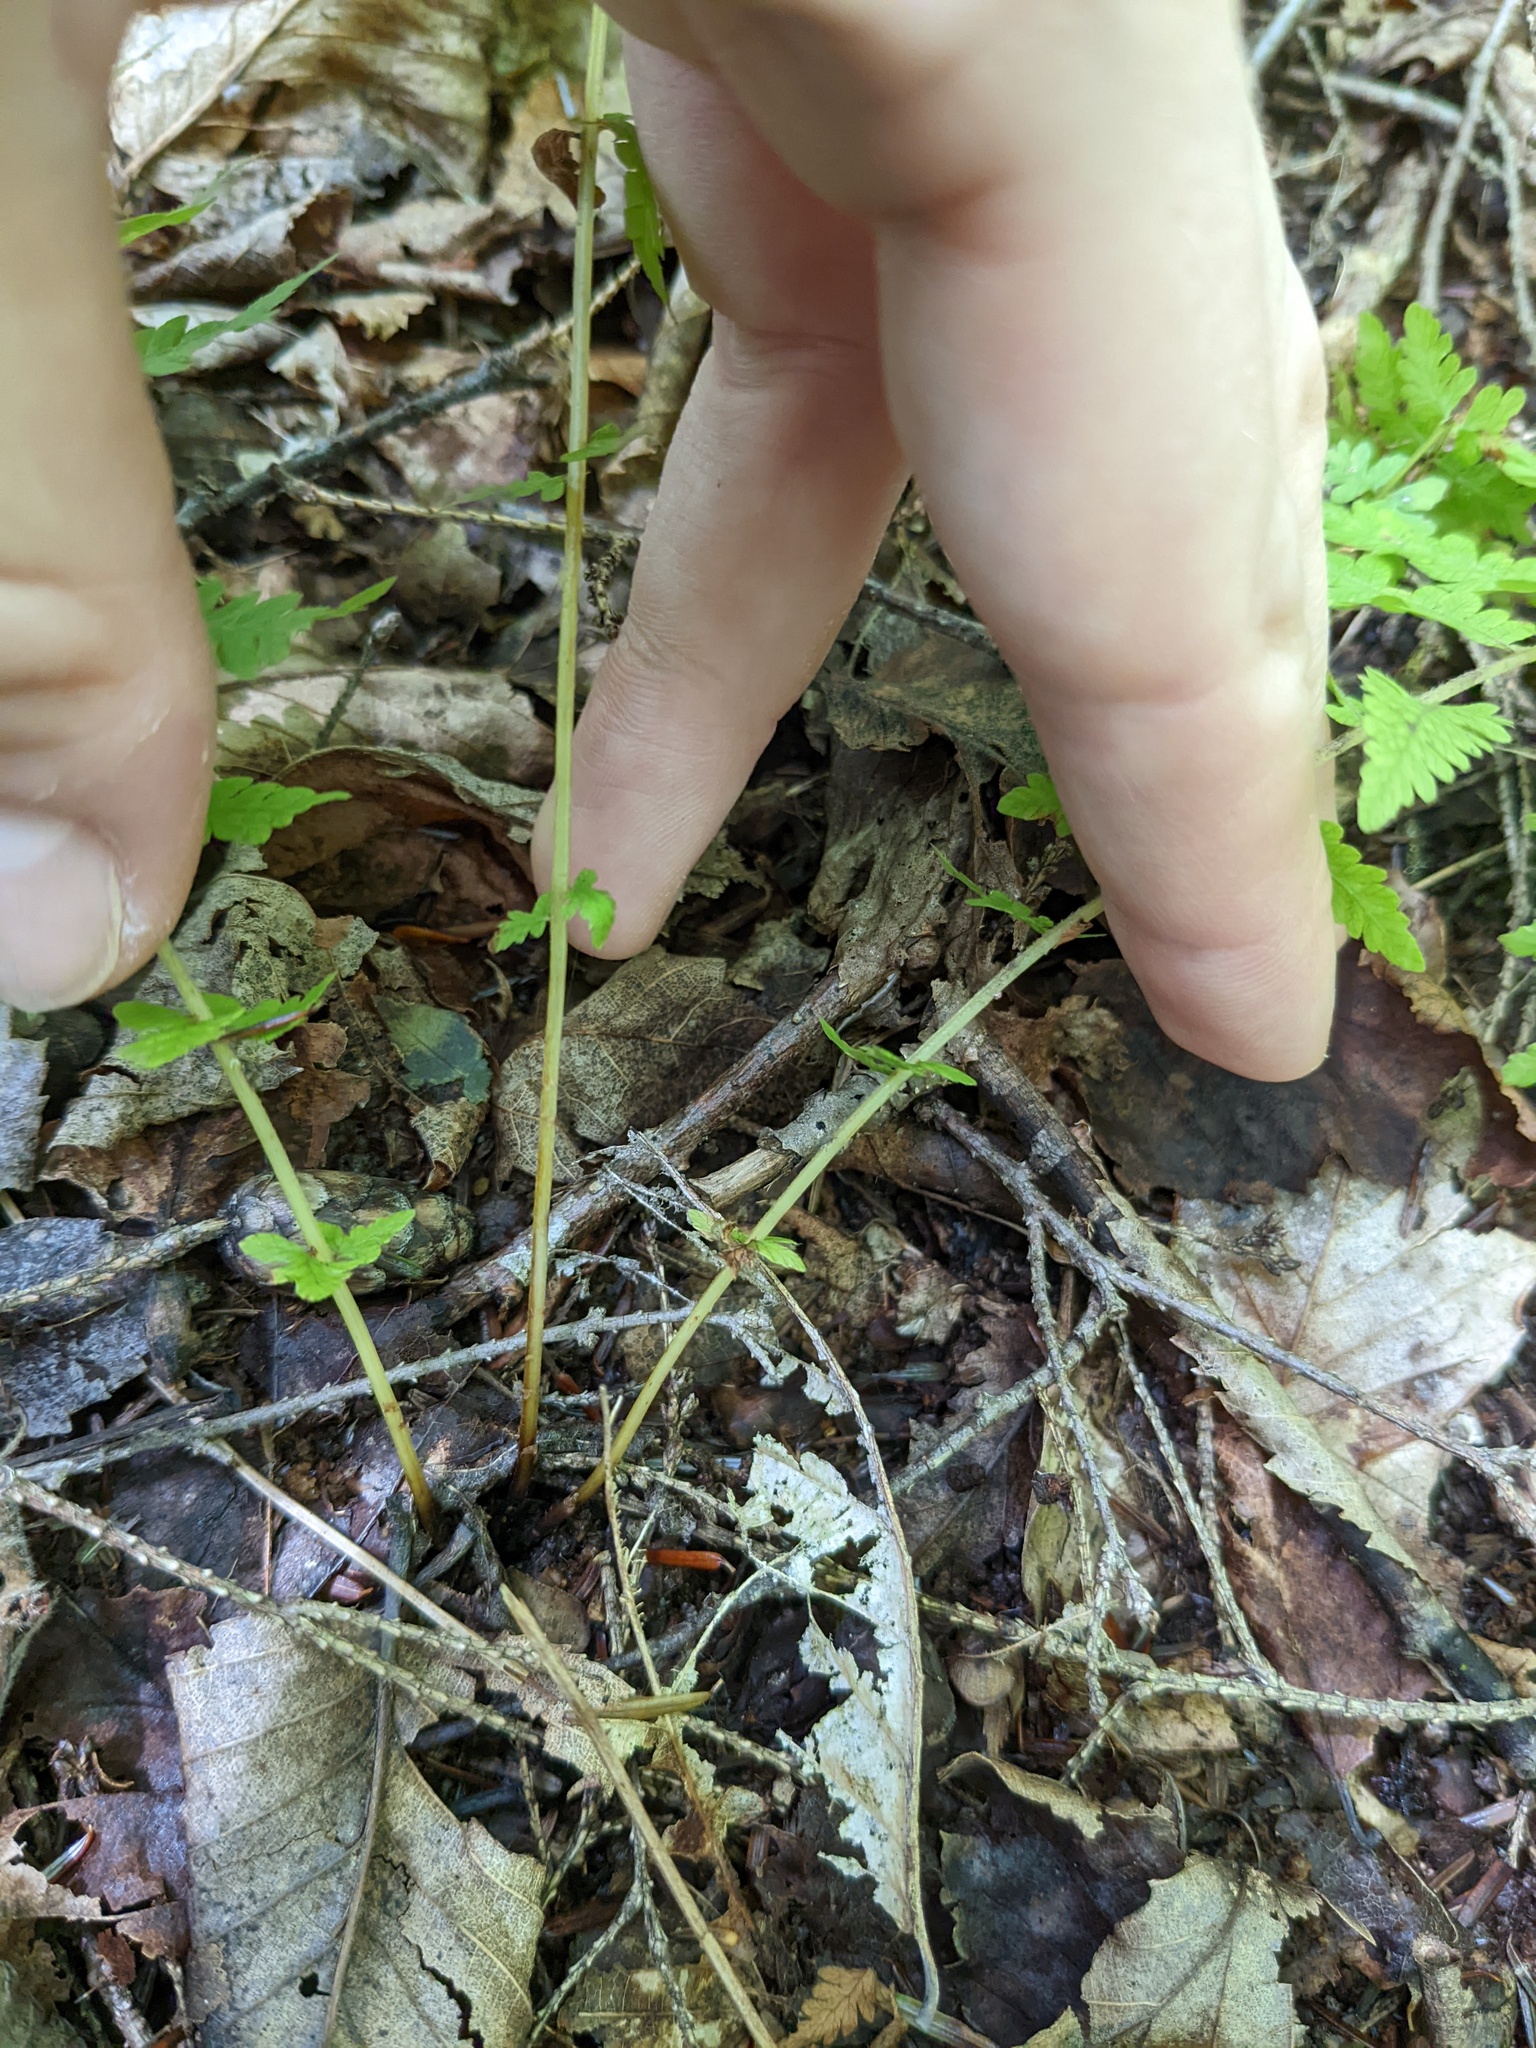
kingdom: Plantae
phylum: Tracheophyta
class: Polypodiopsida
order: Polypodiales
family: Thelypteridaceae
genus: Amauropelta
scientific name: Amauropelta noveboracensis
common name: New york fern
